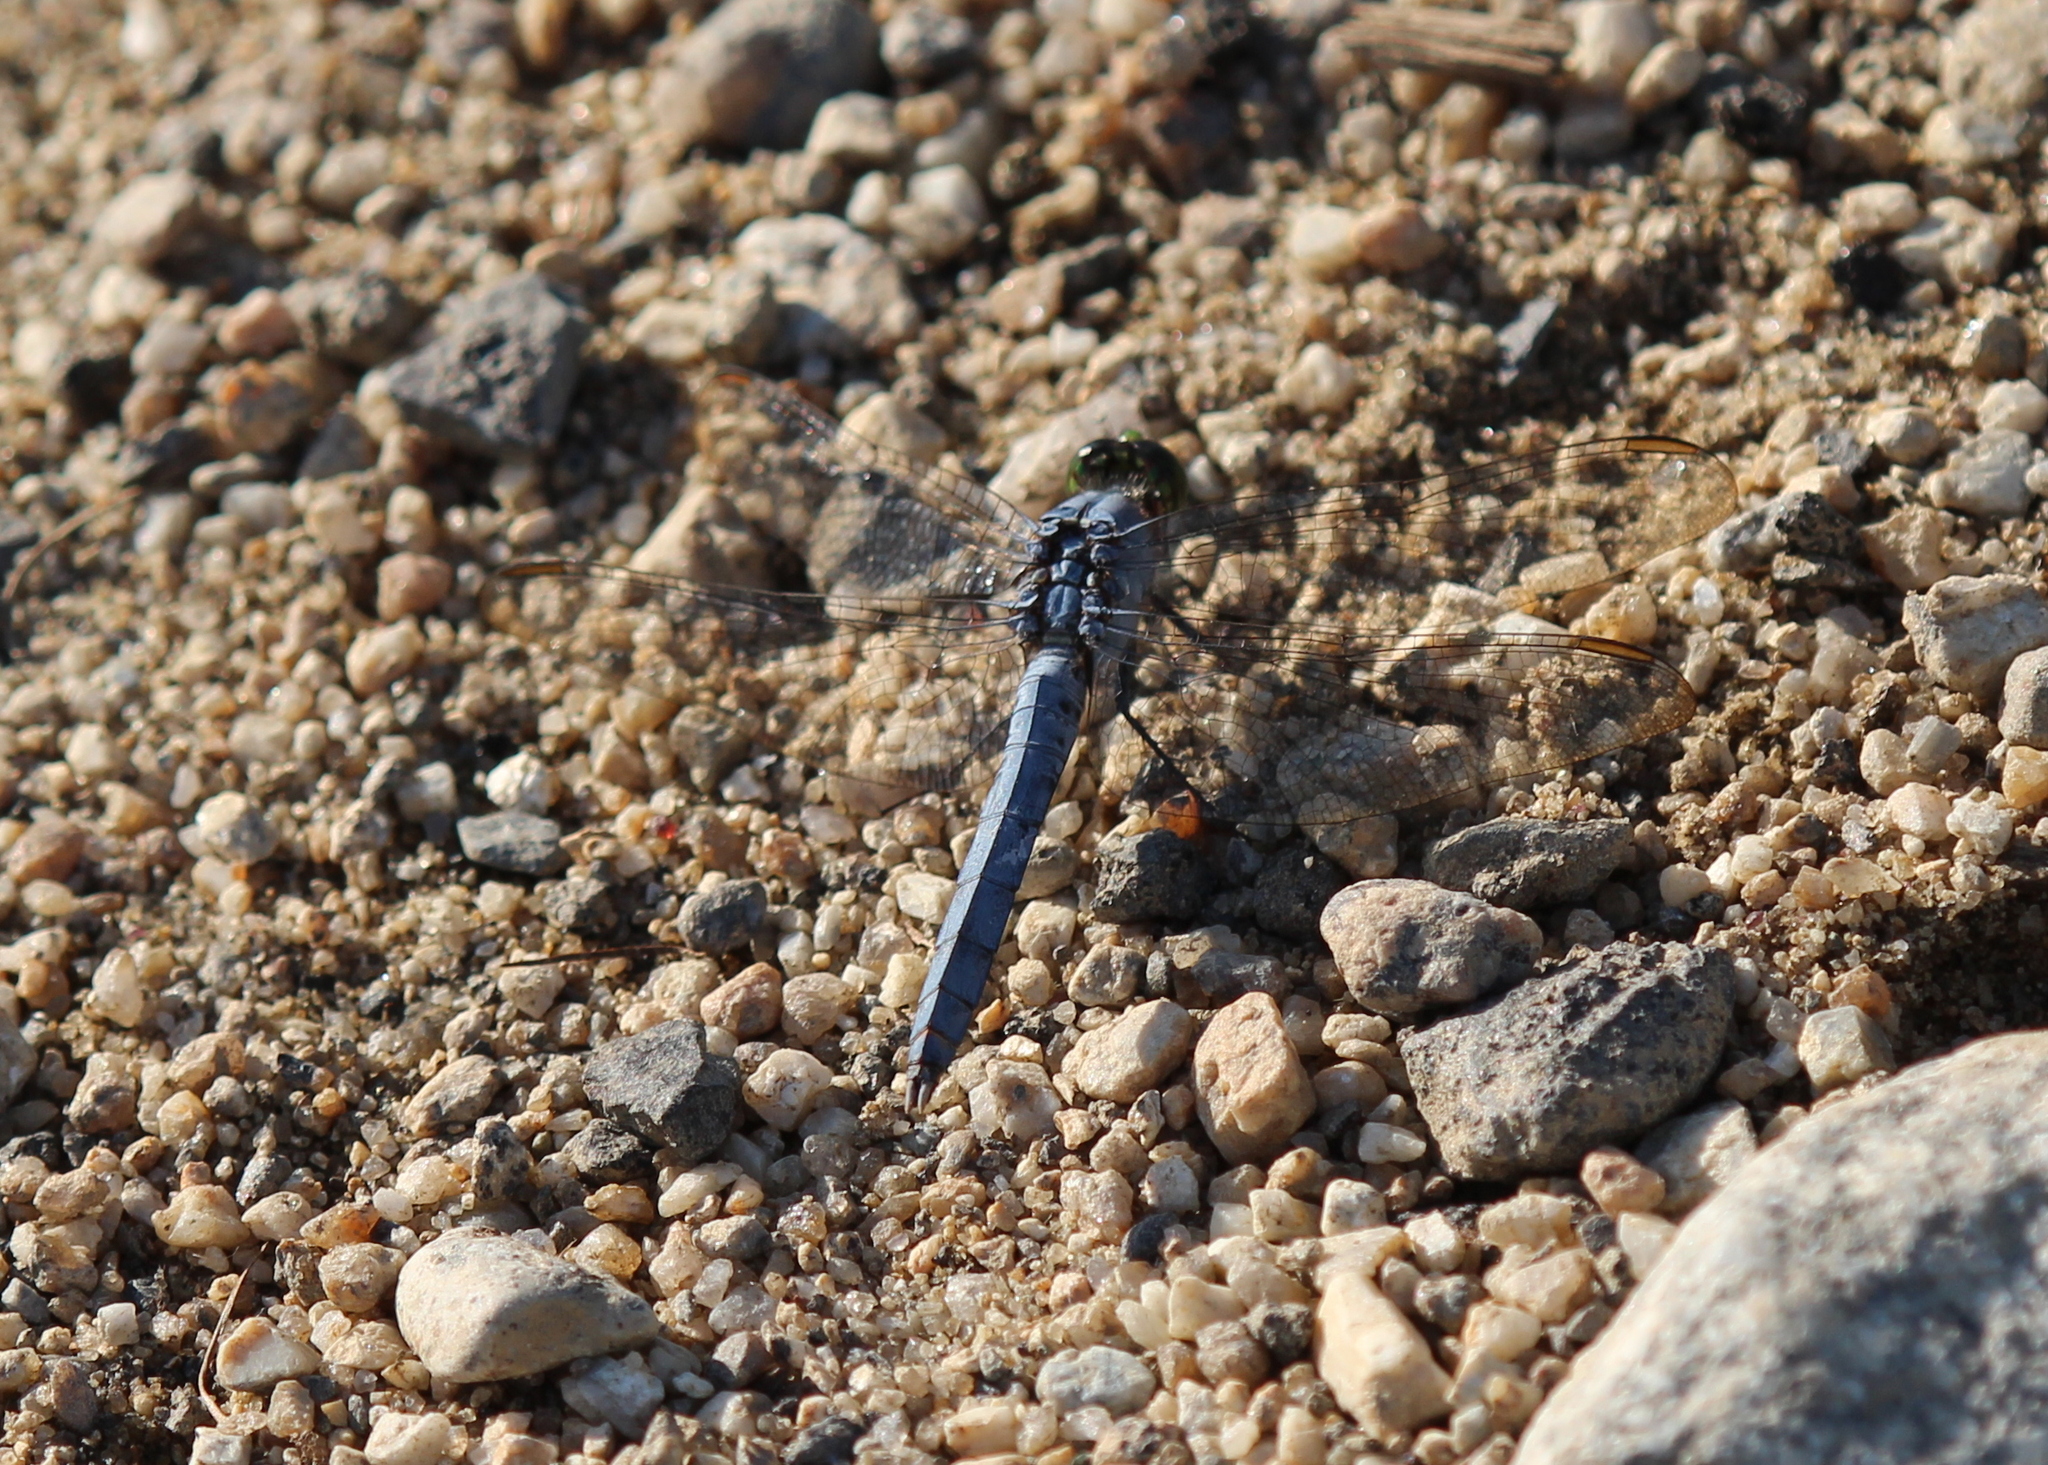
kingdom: Animalia
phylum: Arthropoda
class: Insecta
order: Odonata
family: Libellulidae
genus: Erythemis
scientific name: Erythemis simplicicollis
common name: Eastern pondhawk
